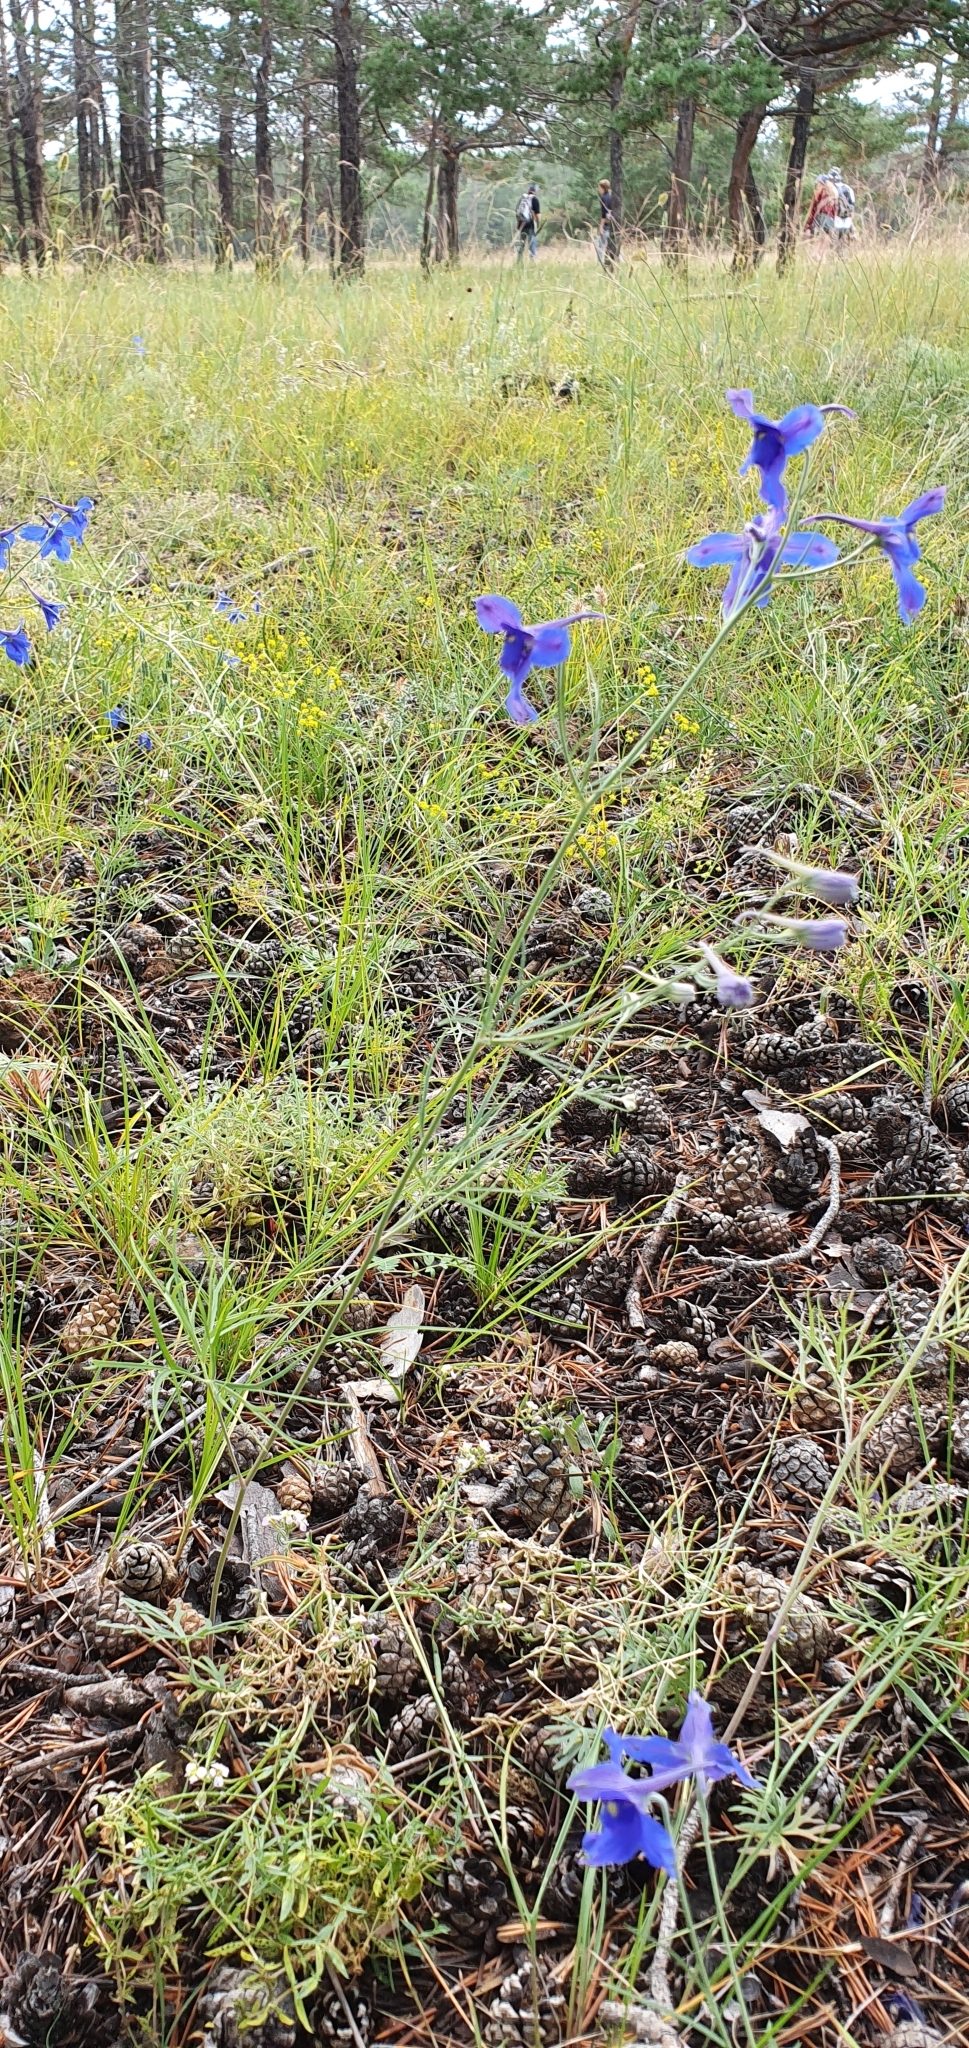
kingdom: Plantae
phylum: Tracheophyta
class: Magnoliopsida
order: Ranunculales
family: Ranunculaceae
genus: Delphinium
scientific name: Delphinium grandiflorum
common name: Siberian larkspur
